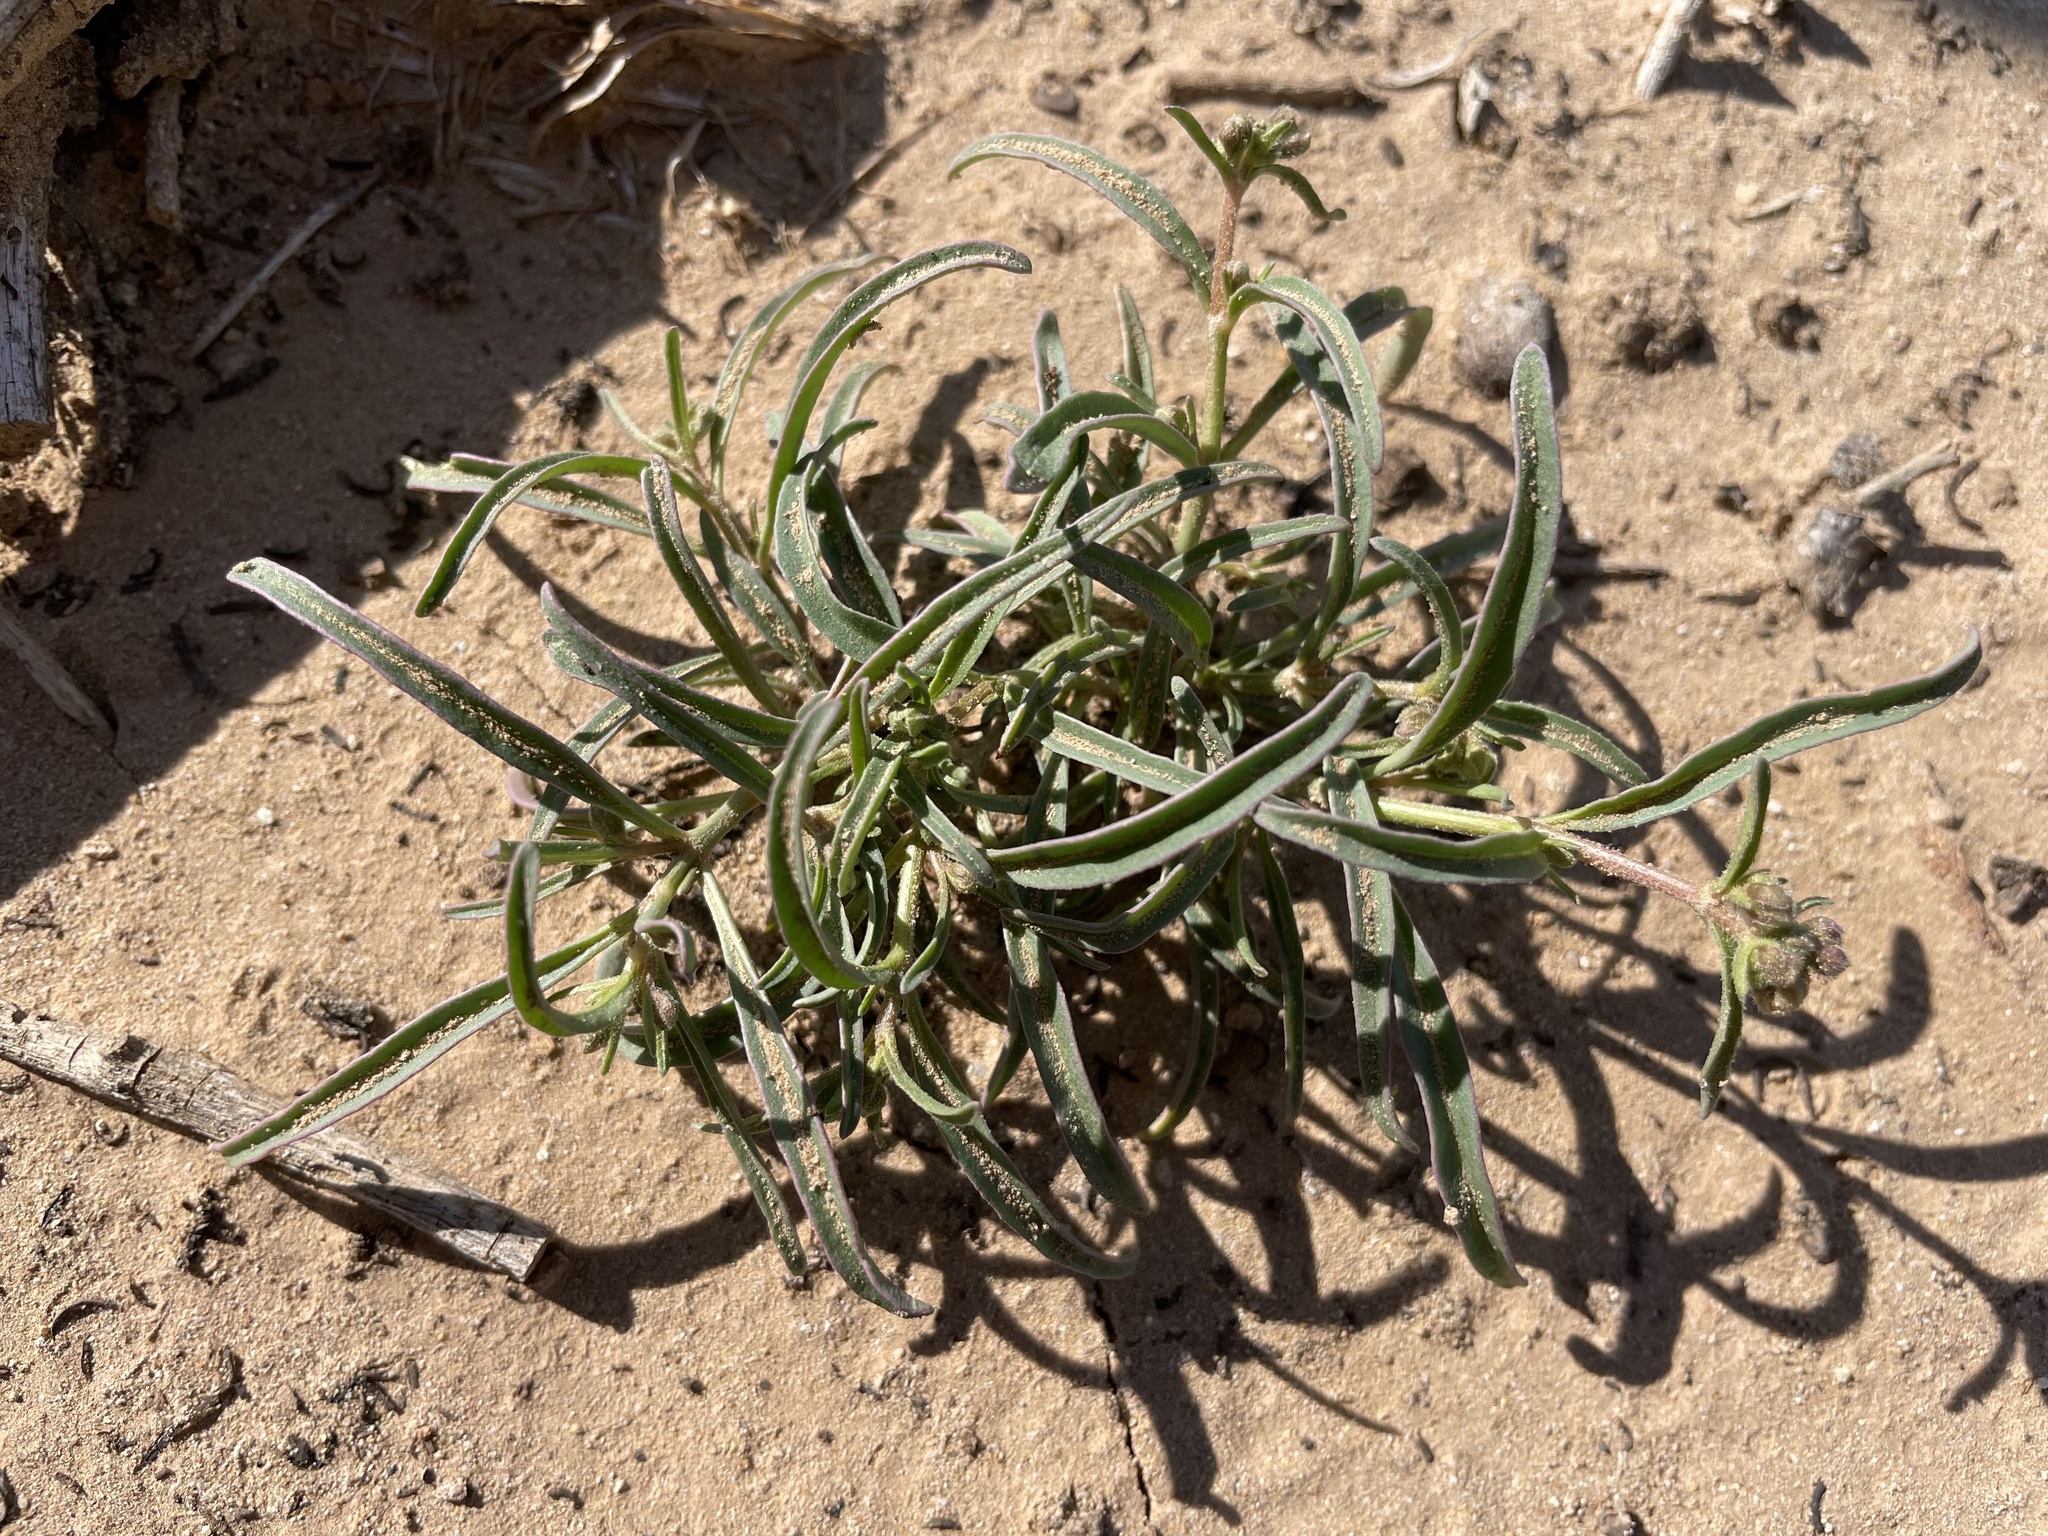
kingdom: Plantae
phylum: Tracheophyta
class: Magnoliopsida
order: Caryophyllales
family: Nyctaginaceae
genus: Mirabilis
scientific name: Mirabilis linearis
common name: Linear-leaved four-o'clock
